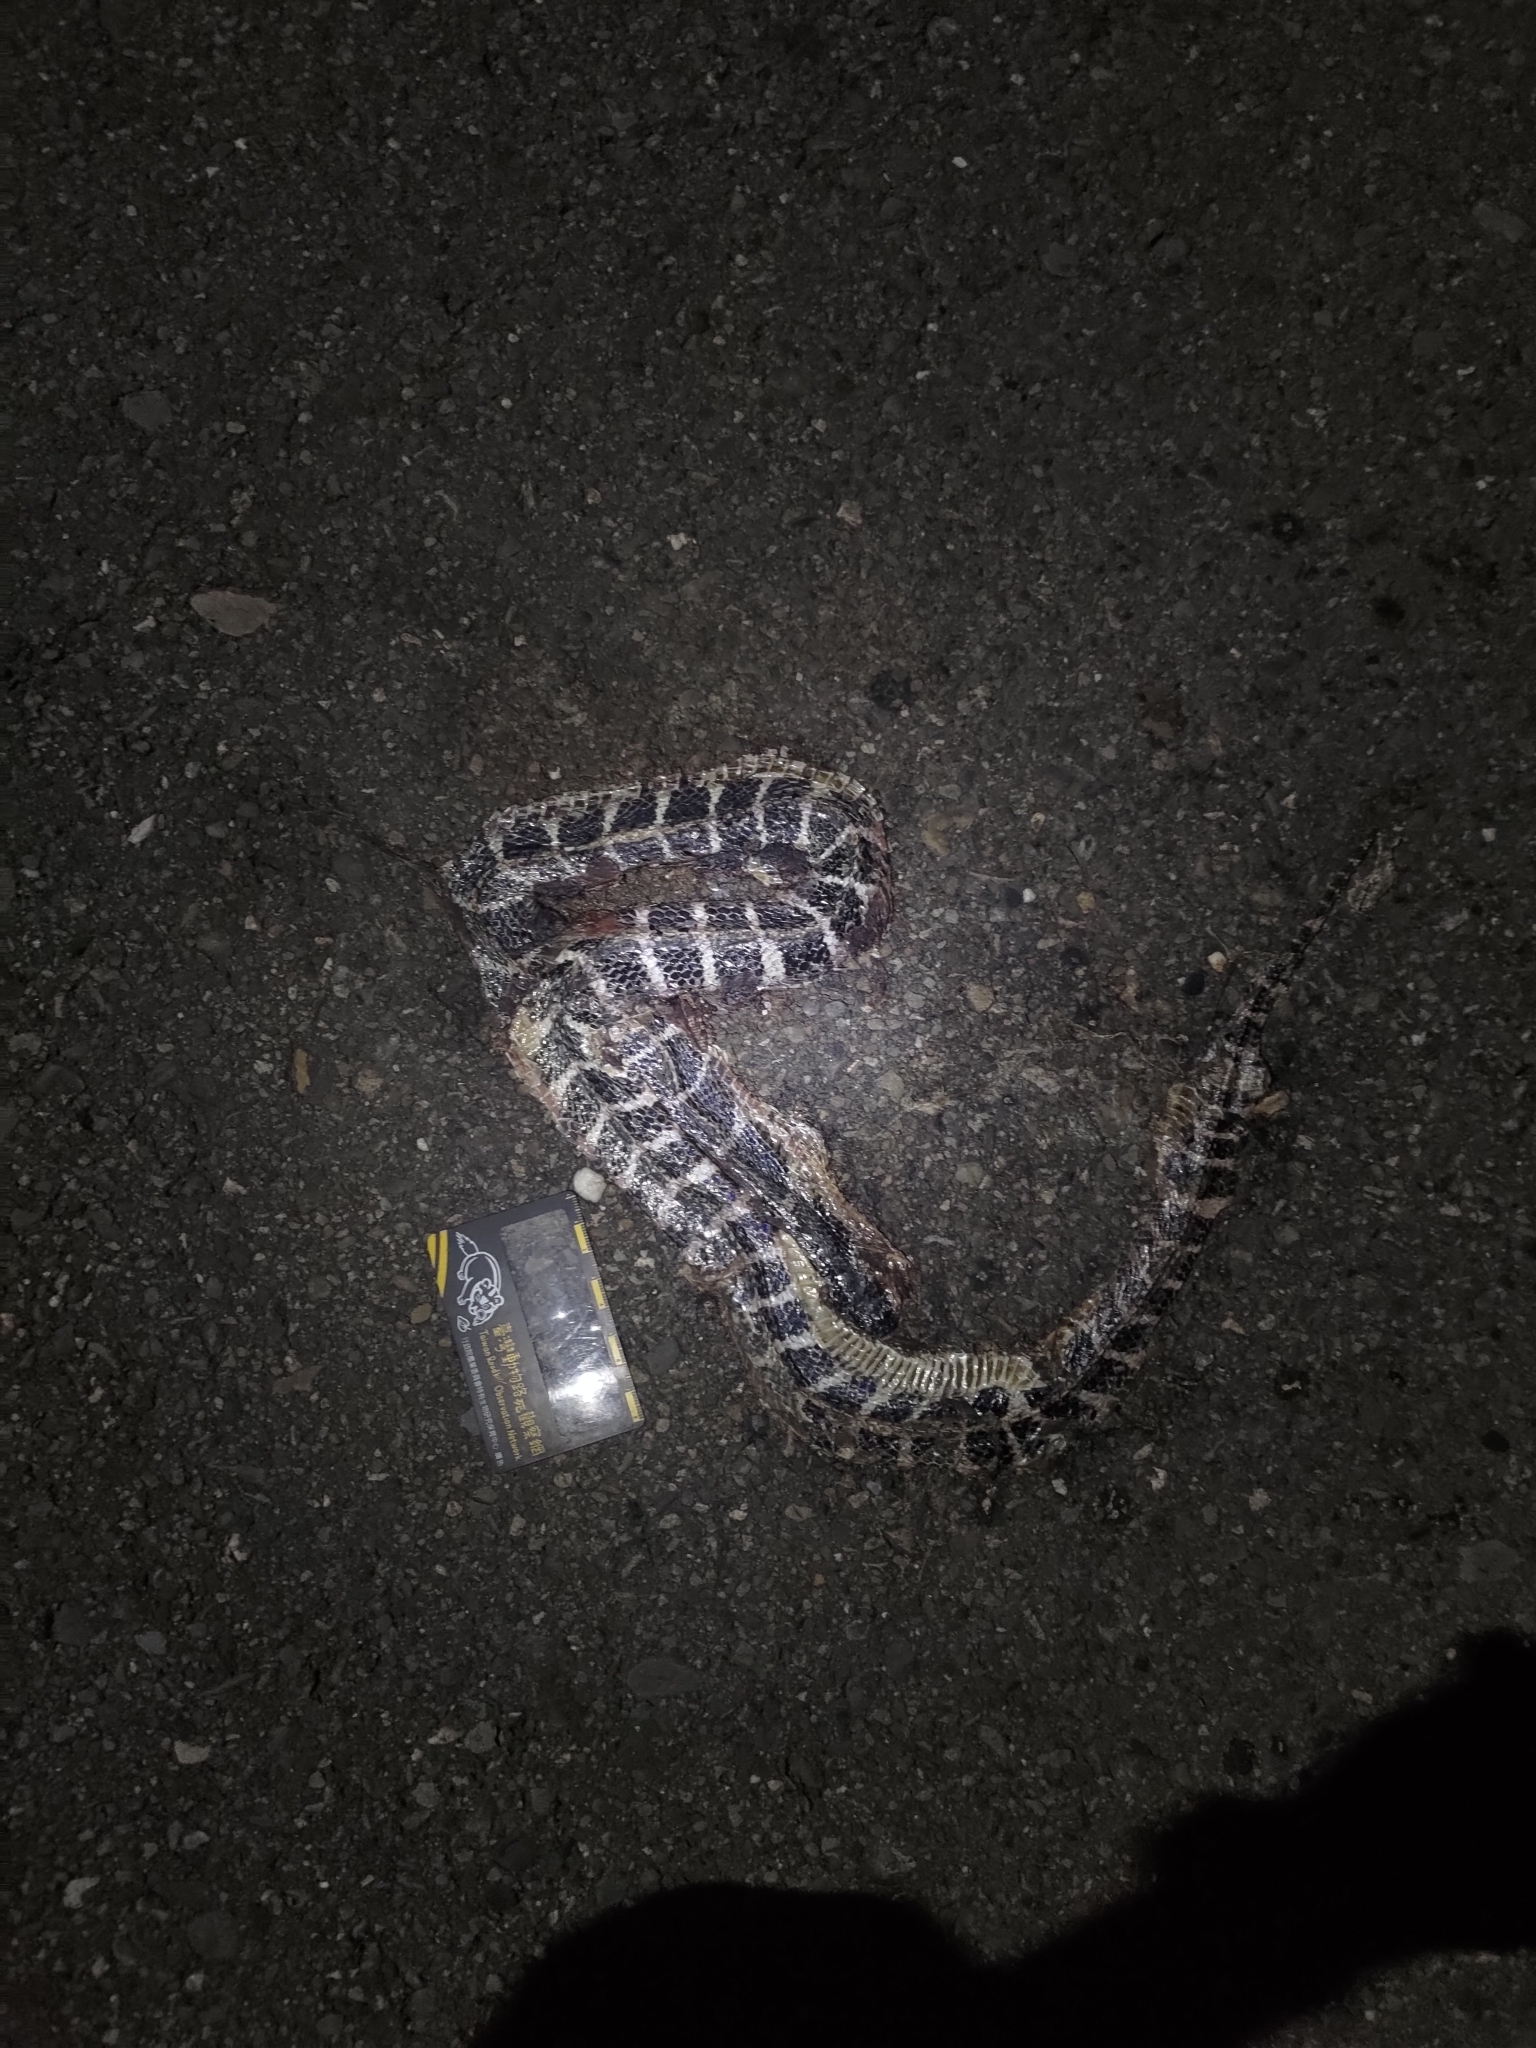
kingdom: Animalia
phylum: Chordata
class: Squamata
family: Elapidae
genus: Bungarus
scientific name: Bungarus multicinctus
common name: Many-banded krait
